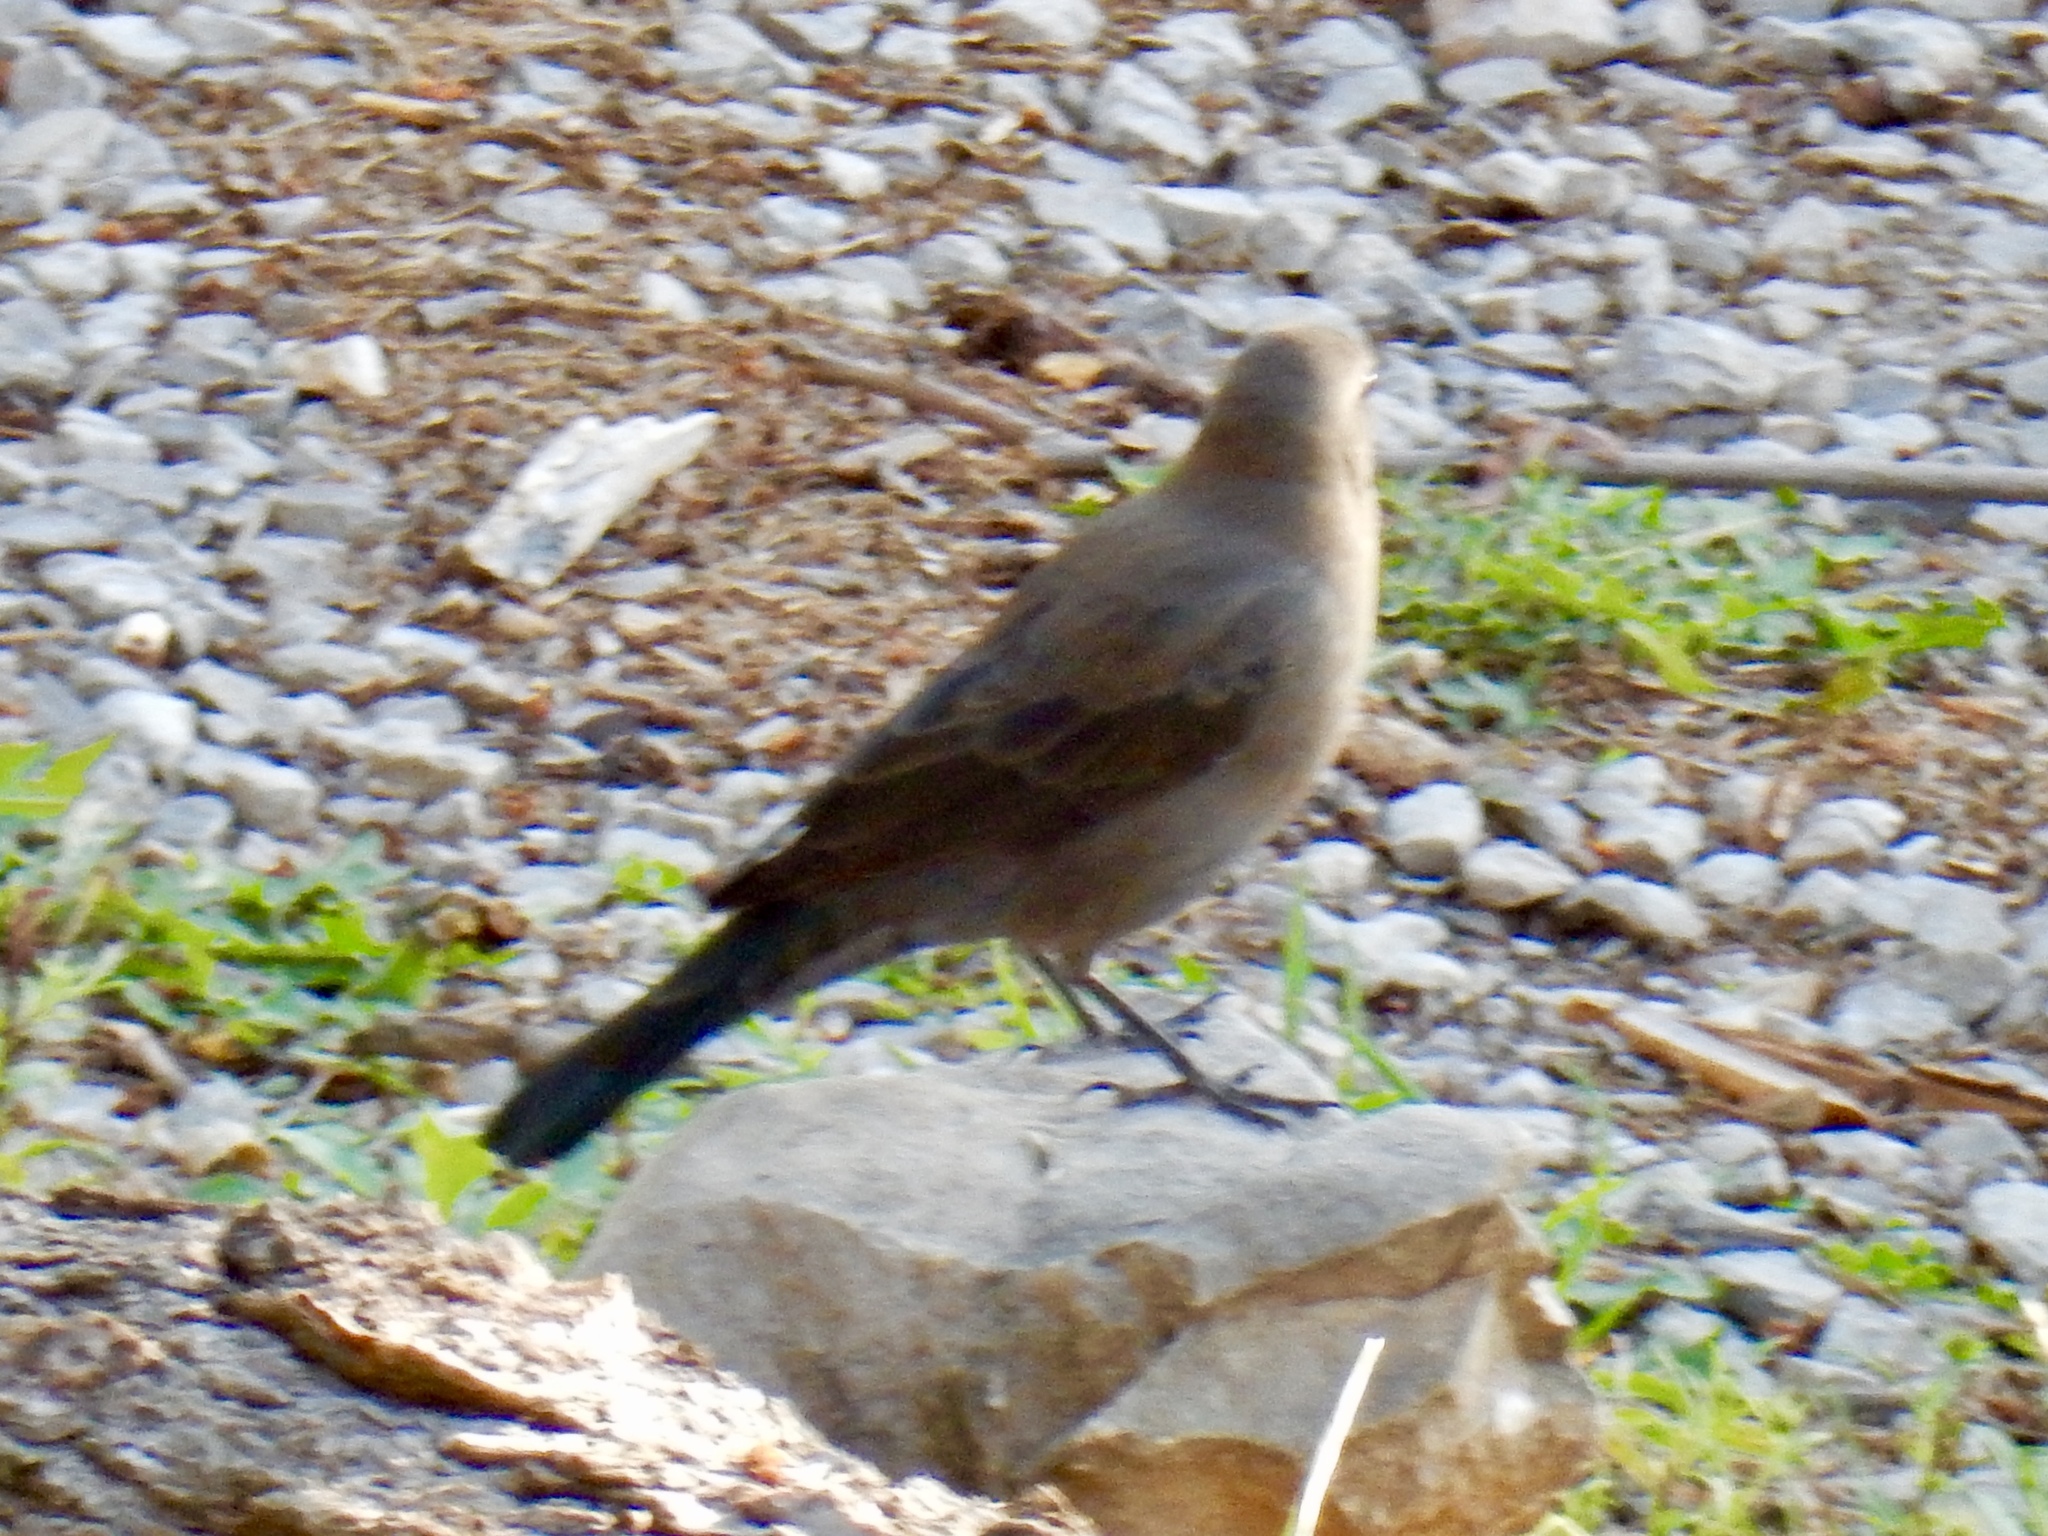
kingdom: Animalia
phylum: Chordata
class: Aves
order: Passeriformes
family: Icteridae
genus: Euphagus
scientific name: Euphagus cyanocephalus
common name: Brewer's blackbird
